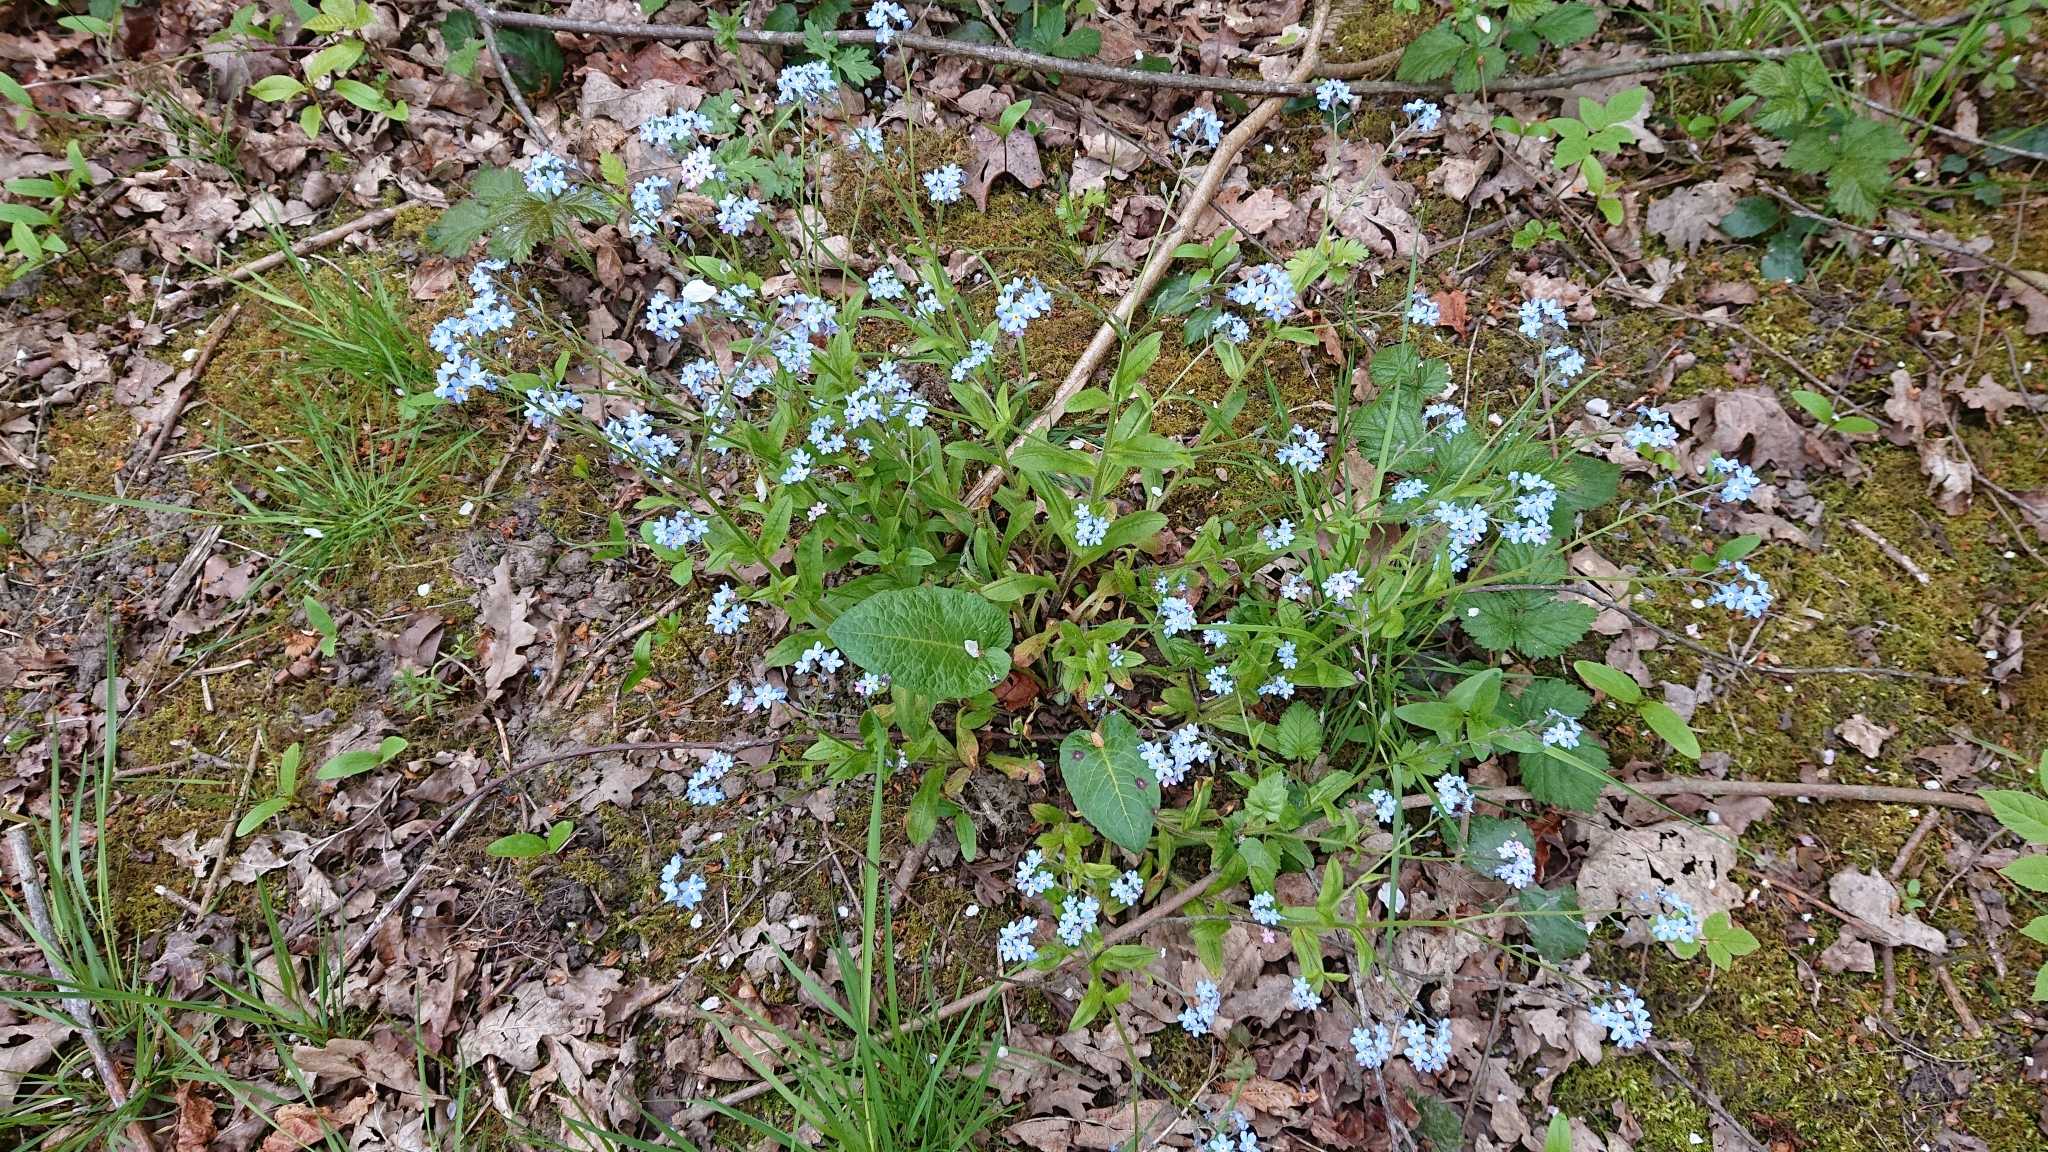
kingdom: Plantae
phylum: Tracheophyta
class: Magnoliopsida
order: Boraginales
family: Boraginaceae
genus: Myosotis
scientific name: Myosotis sylvatica
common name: Wood forget-me-not
